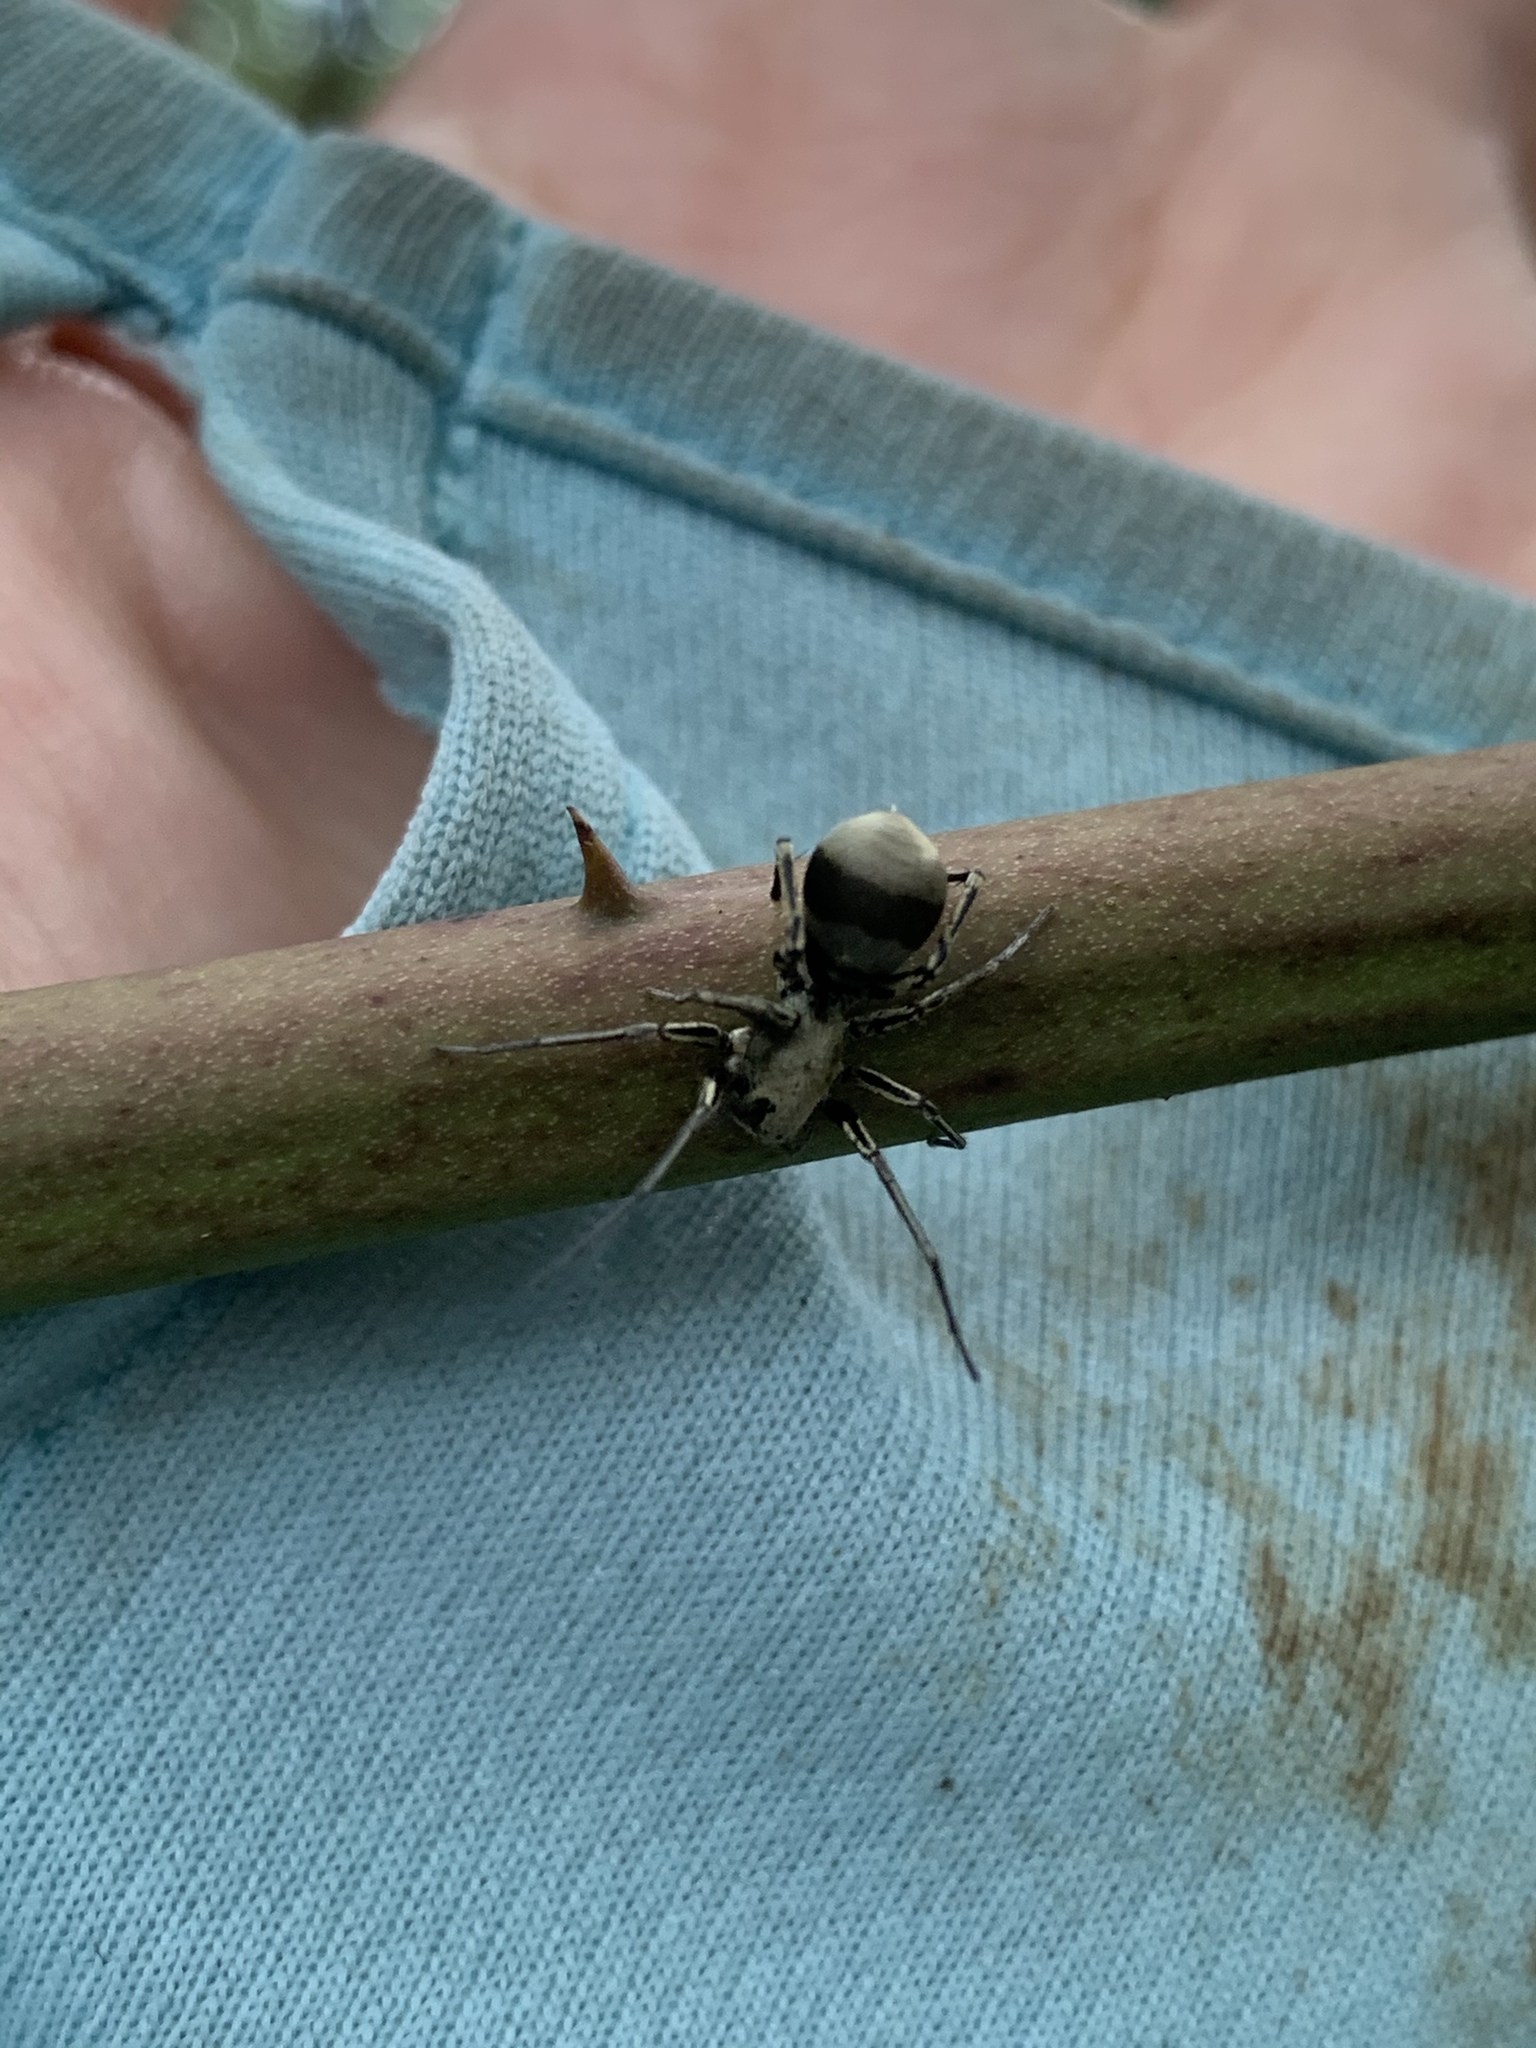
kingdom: Animalia
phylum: Arthropoda
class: Arachnida
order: Araneae
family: Corinnidae
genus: Corinnomma
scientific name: Corinnomma severum
